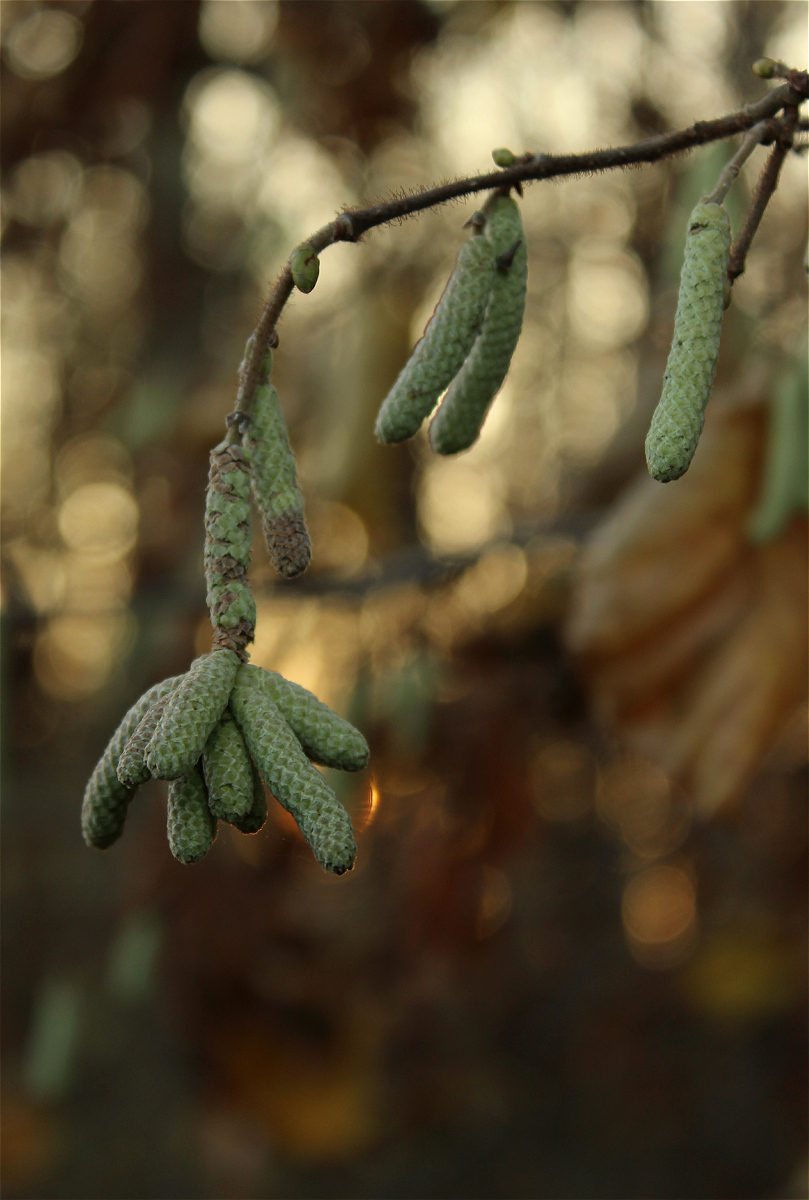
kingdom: Plantae
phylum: Tracheophyta
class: Magnoliopsida
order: Fagales
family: Betulaceae
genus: Corylus
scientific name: Corylus avellana
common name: European hazel
